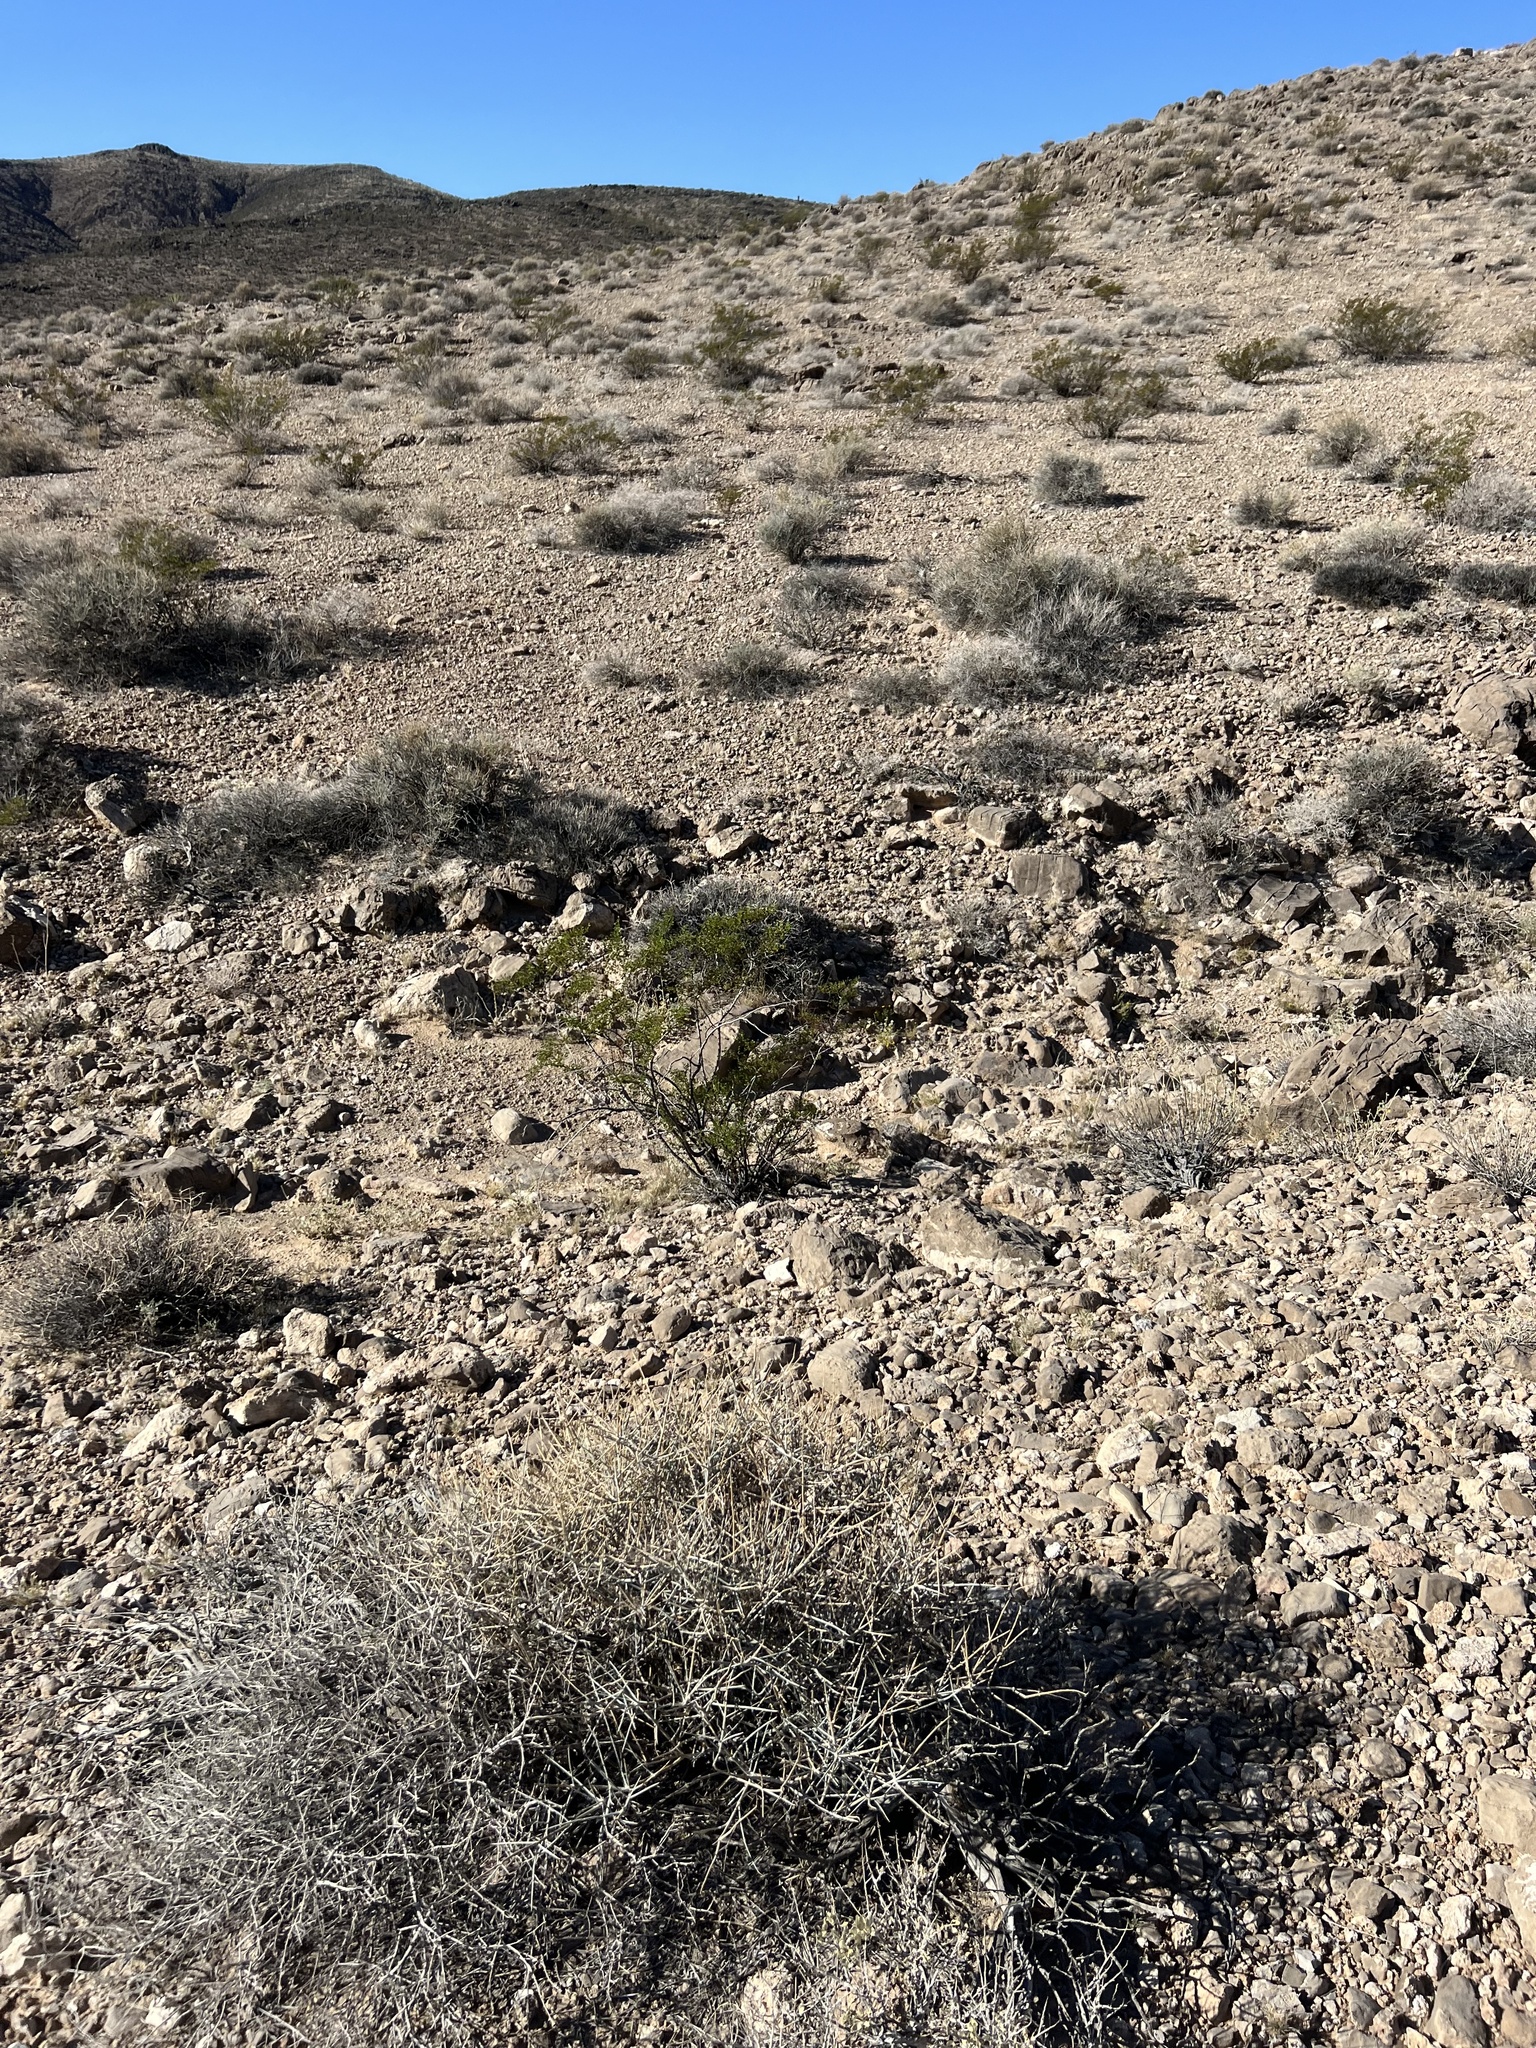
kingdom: Plantae
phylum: Tracheophyta
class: Magnoliopsida
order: Zygophyllales
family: Zygophyllaceae
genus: Larrea
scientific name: Larrea tridentata
